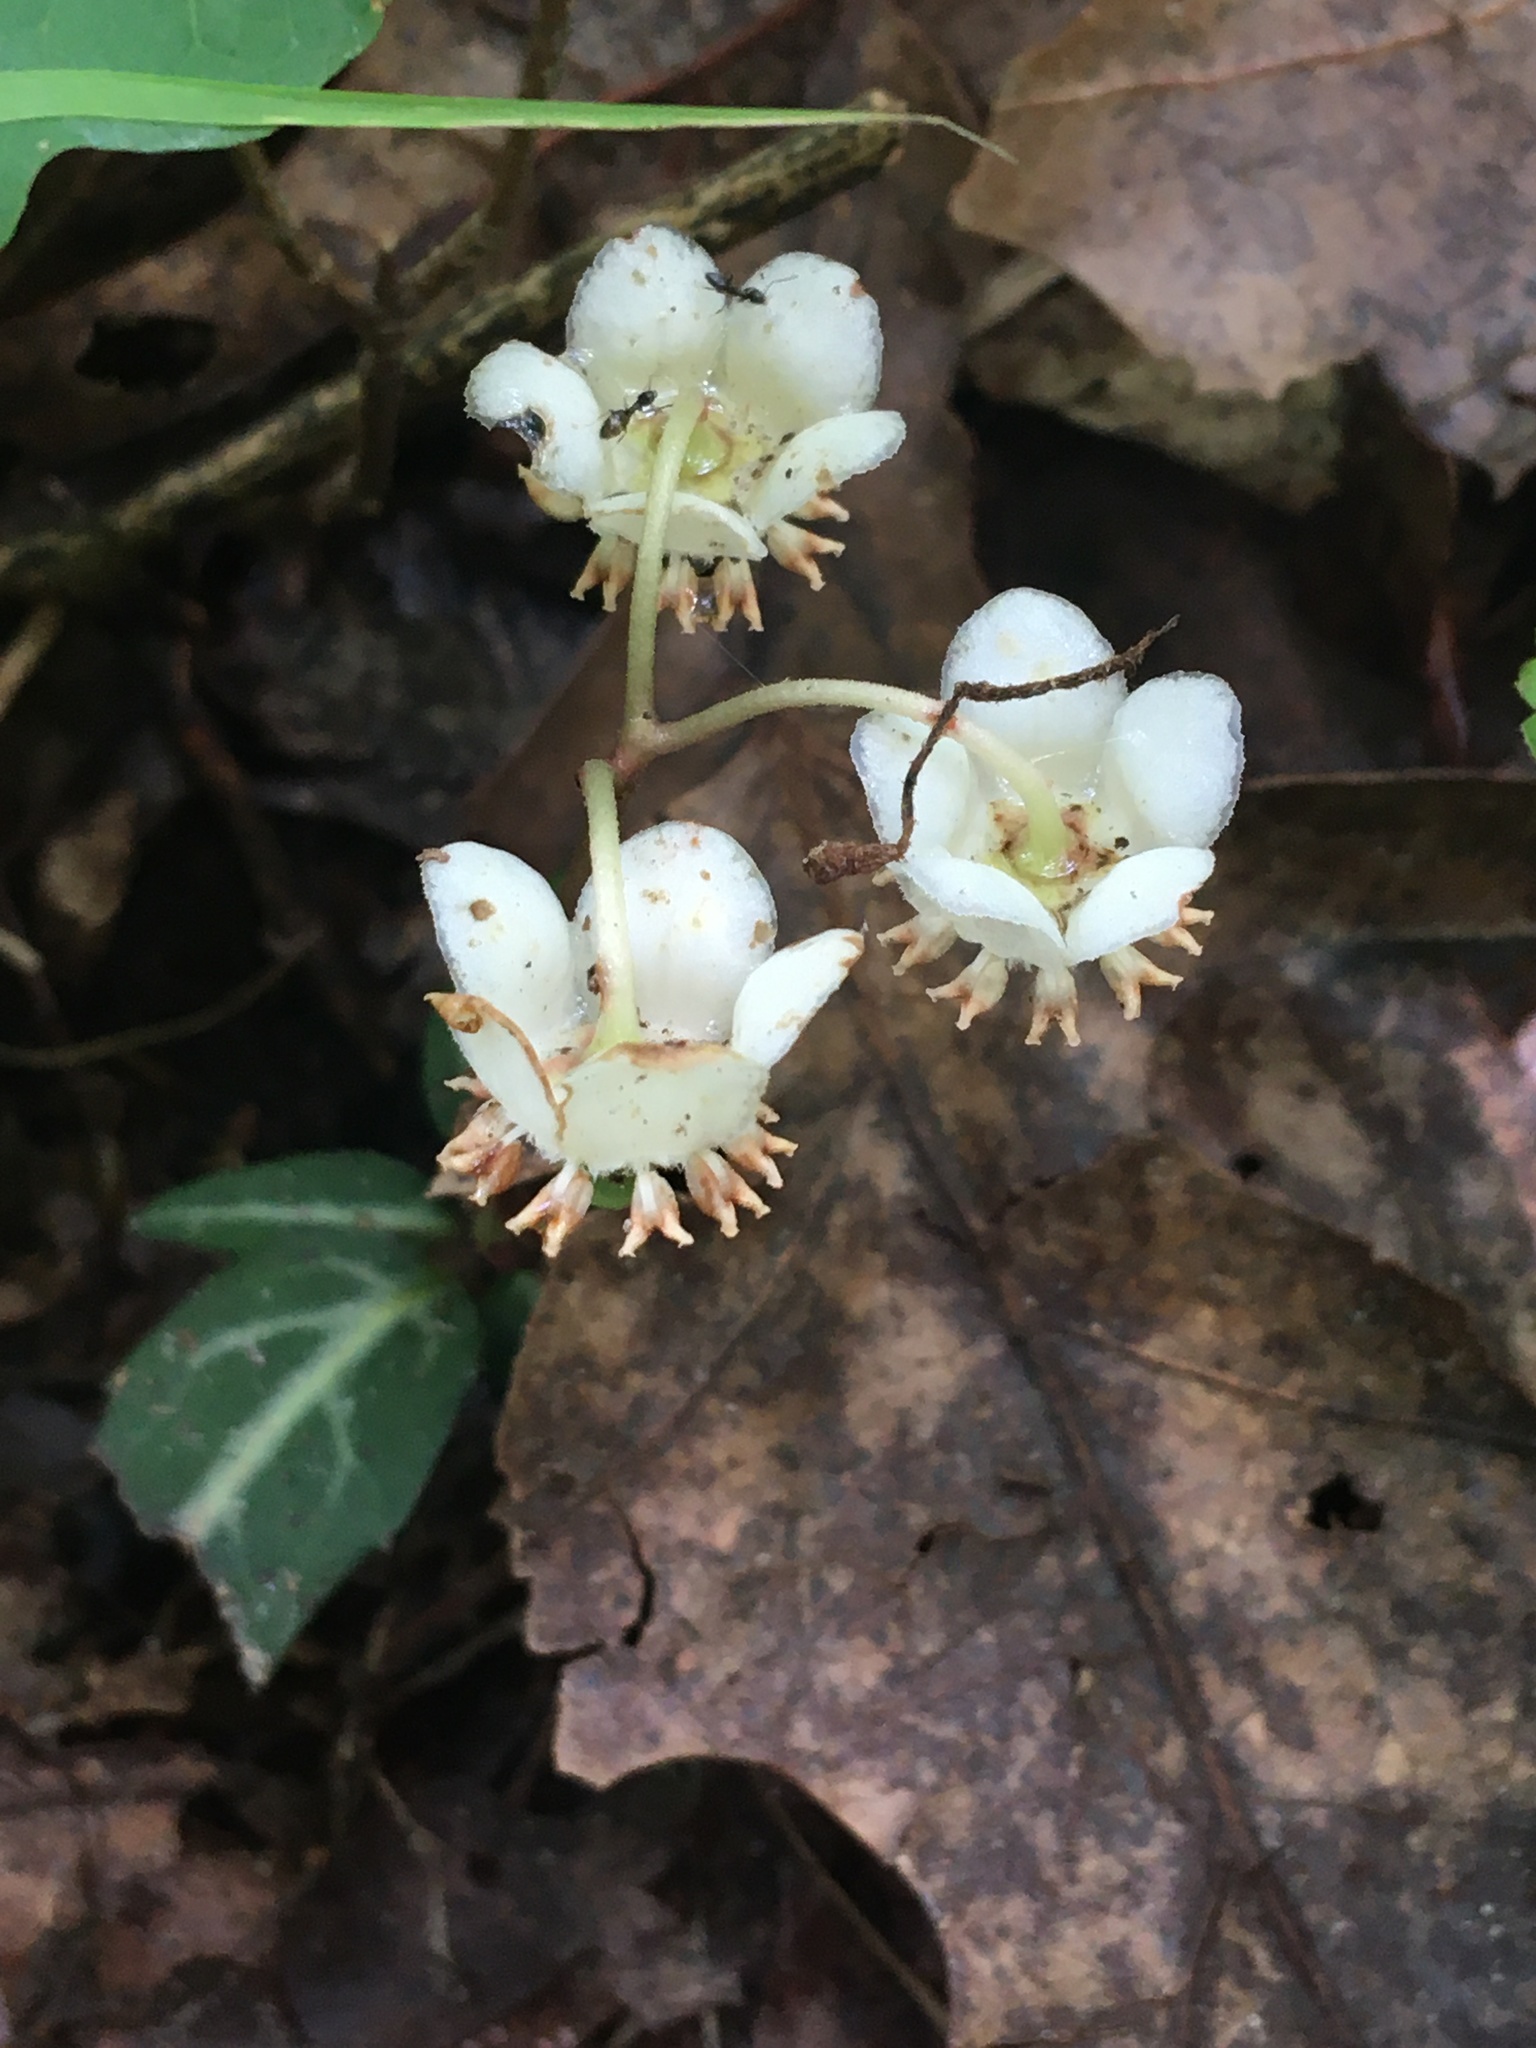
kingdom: Plantae
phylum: Tracheophyta
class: Magnoliopsida
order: Ericales
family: Ericaceae
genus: Chimaphila
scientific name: Chimaphila maculata
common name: Spotted pipsissewa
